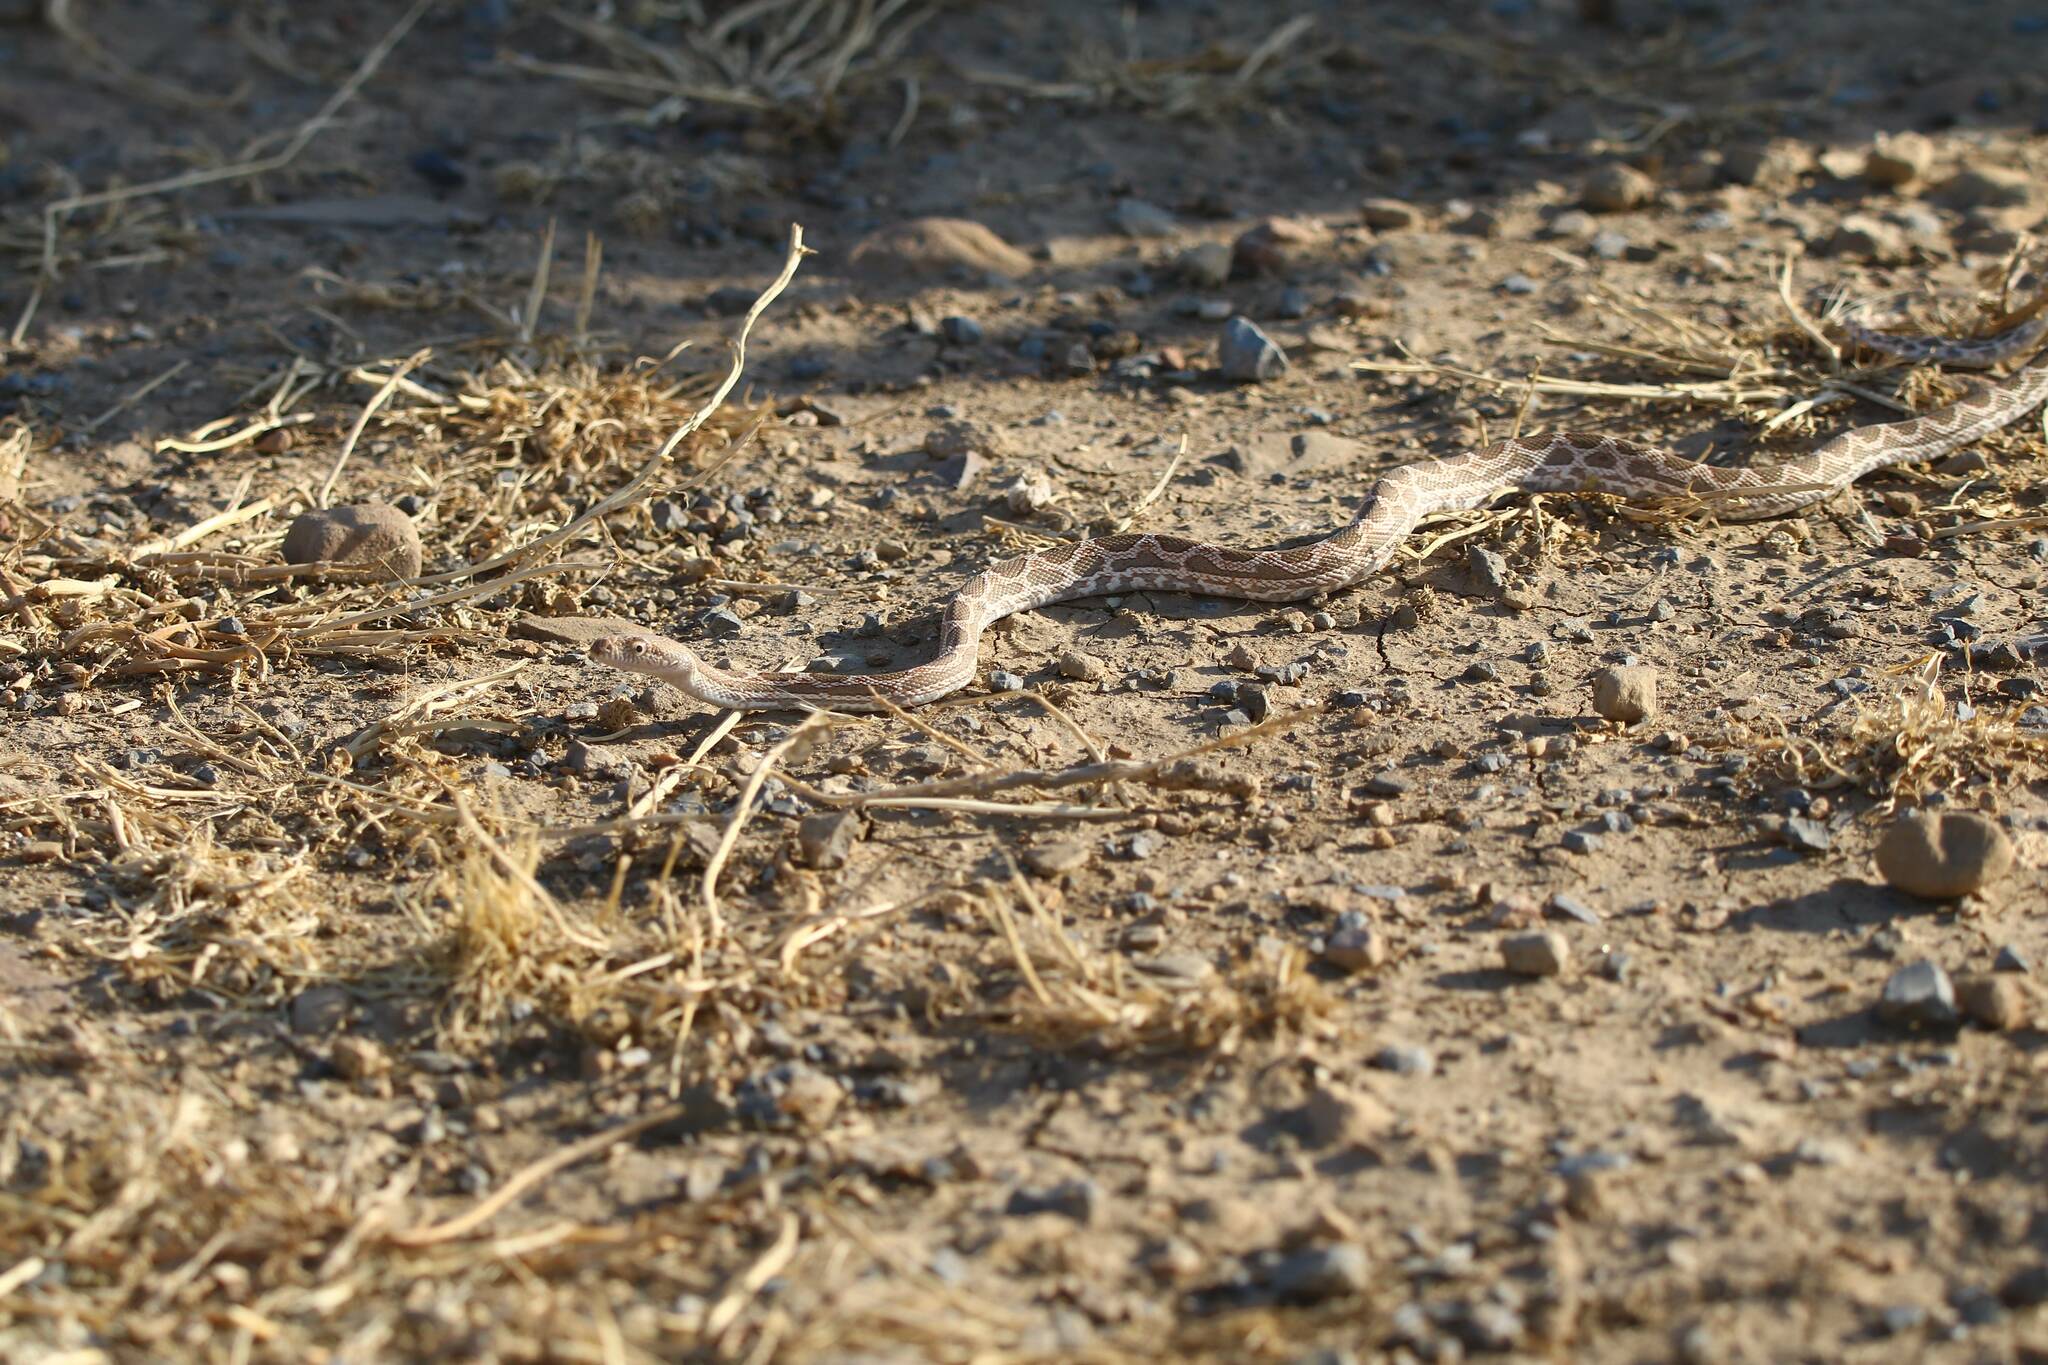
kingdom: Animalia
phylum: Chordata
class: Squamata
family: Colubridae
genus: Spalerosophis
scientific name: Spalerosophis dolichospilus
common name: Mograbin diadem snake
